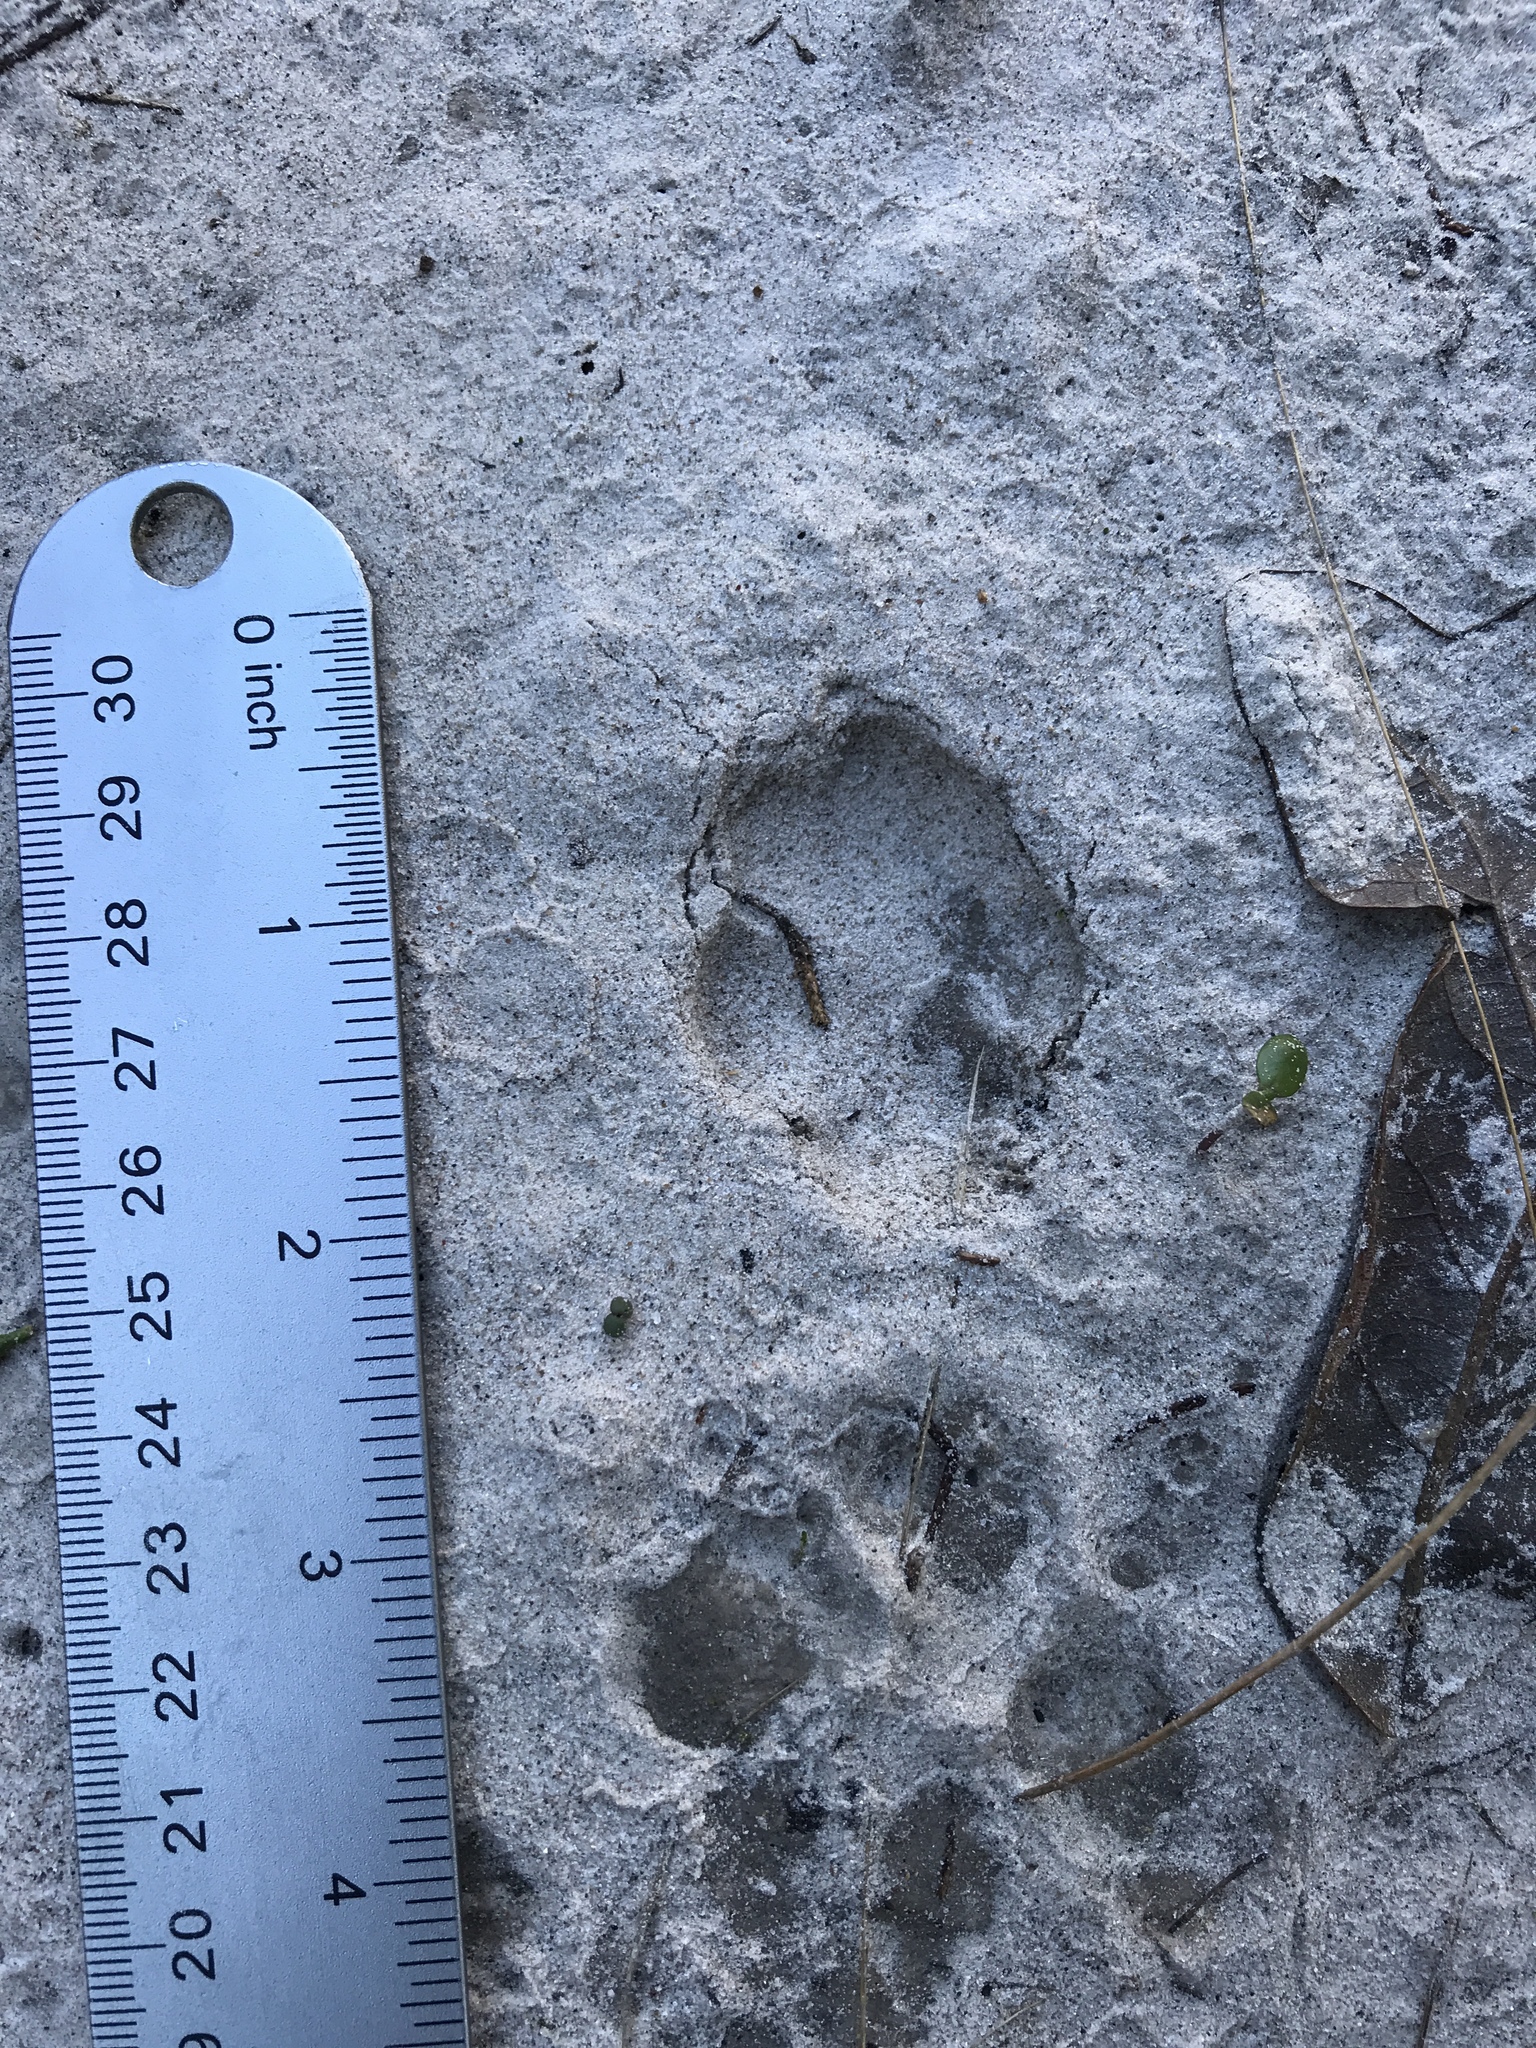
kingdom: Animalia
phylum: Chordata
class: Mammalia
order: Carnivora
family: Canidae
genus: Urocyon
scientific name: Urocyon cinereoargenteus
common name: Gray fox
